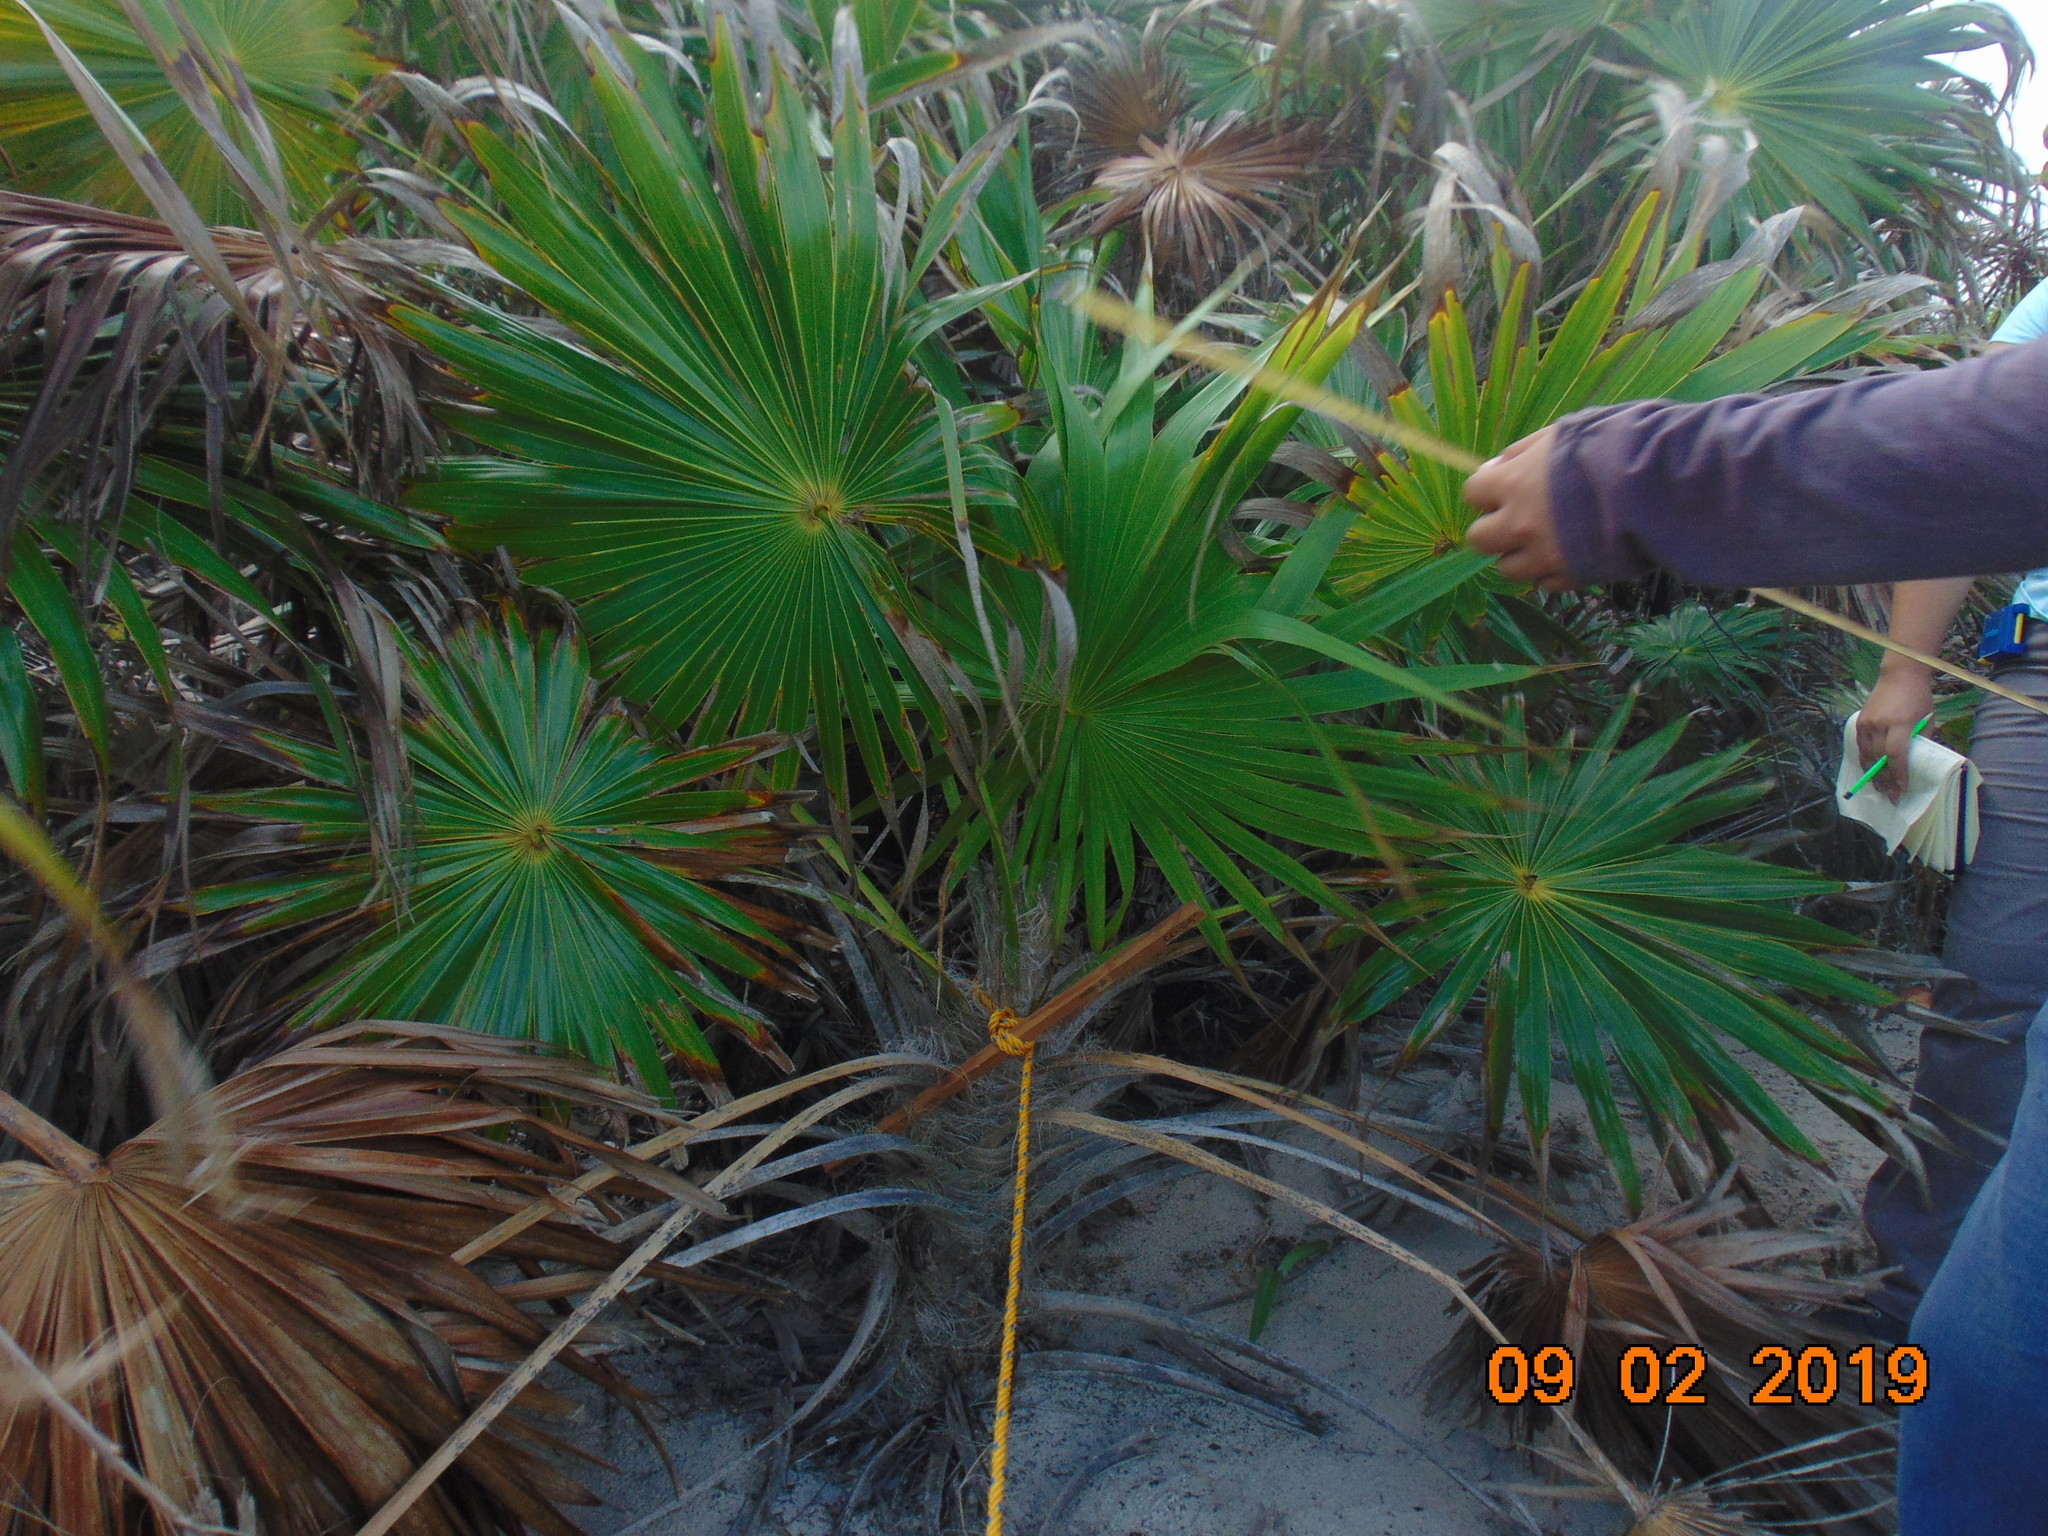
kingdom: Plantae
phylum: Tracheophyta
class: Liliopsida
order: Arecales
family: Arecaceae
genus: Thrinax
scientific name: Thrinax radiata
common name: Florida thatch
